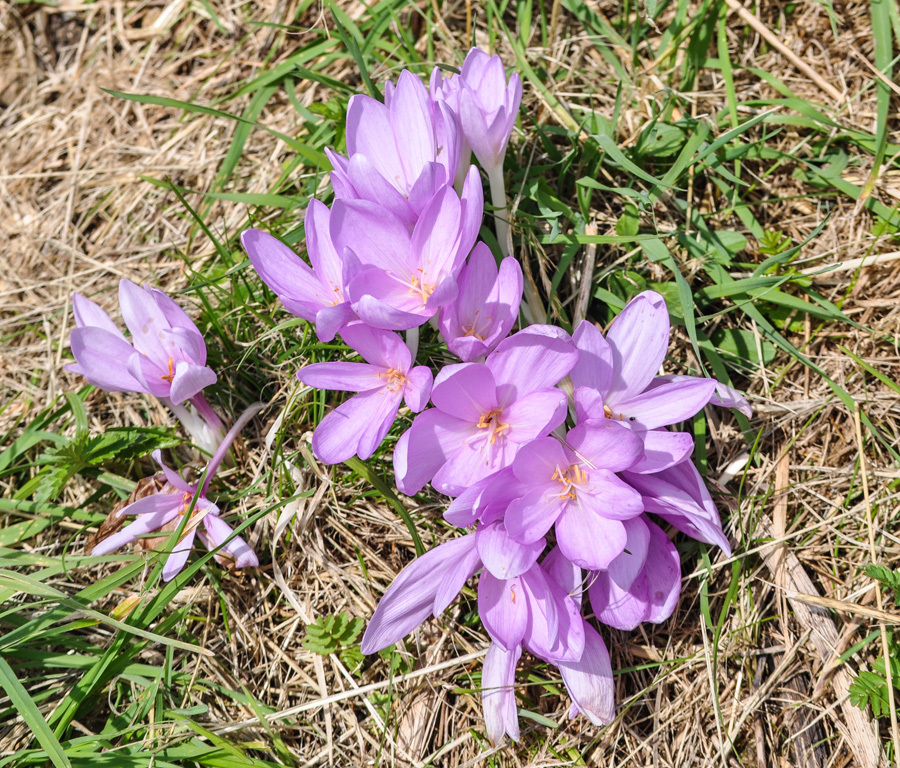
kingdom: Plantae
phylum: Tracheophyta
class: Liliopsida
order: Liliales
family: Colchicaceae
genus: Colchicum
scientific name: Colchicum autumnale
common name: Autumn crocus
